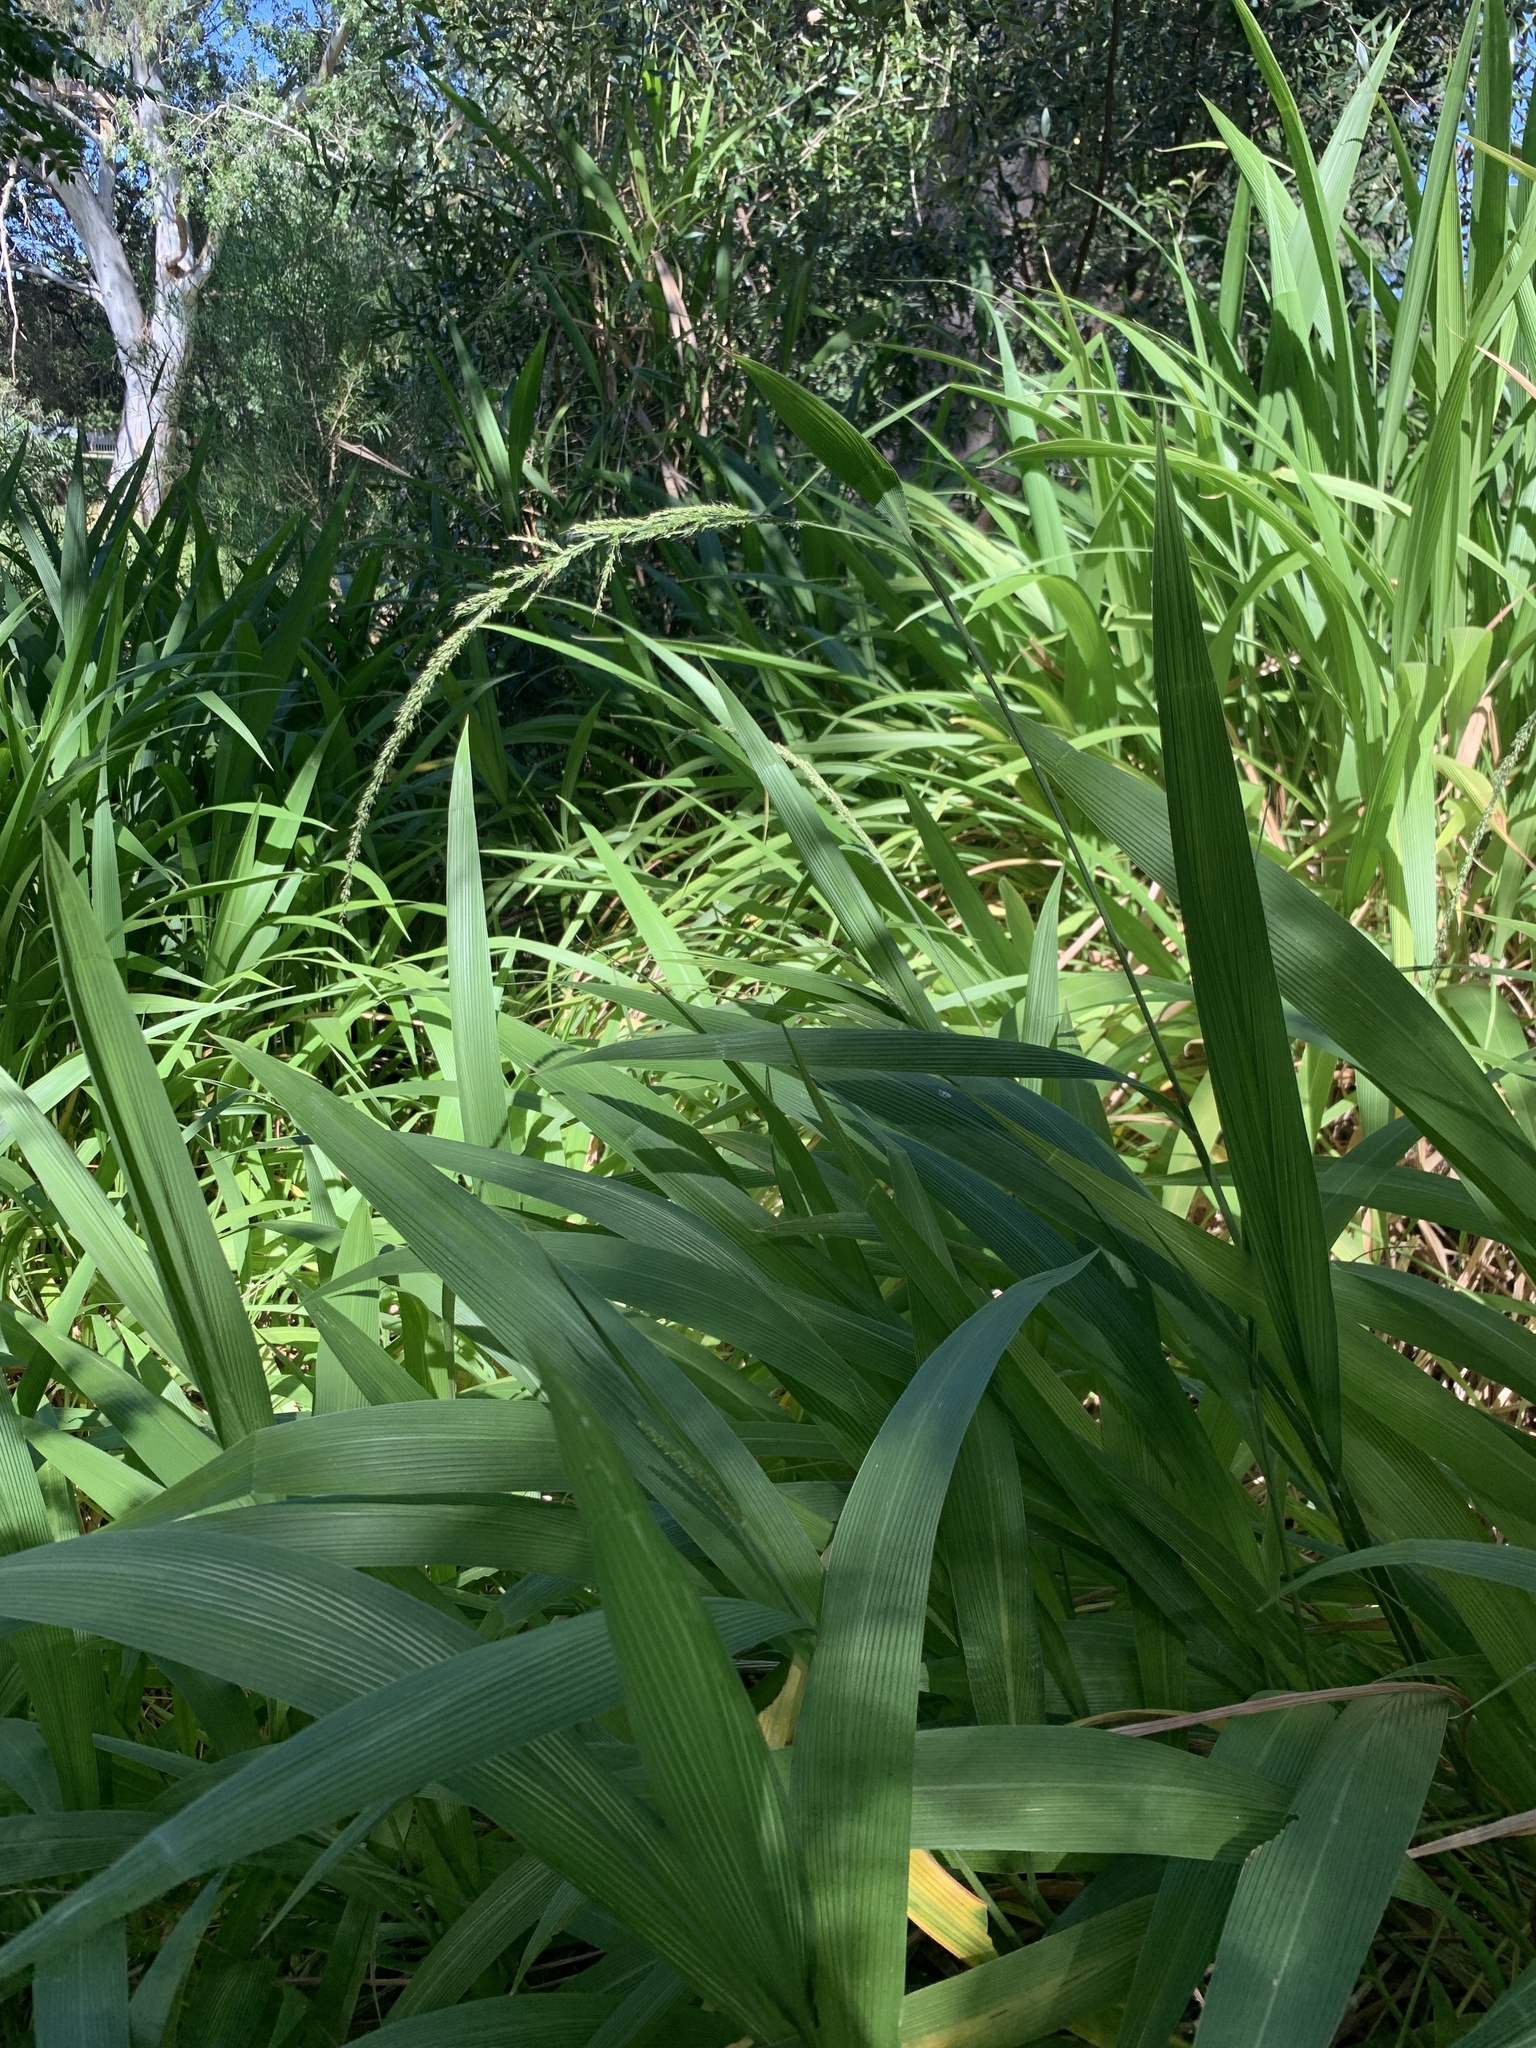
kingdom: Plantae
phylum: Tracheophyta
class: Liliopsida
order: Poales
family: Poaceae
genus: Setaria
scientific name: Setaria megaphylla
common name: Bigleaf bristlegrass
